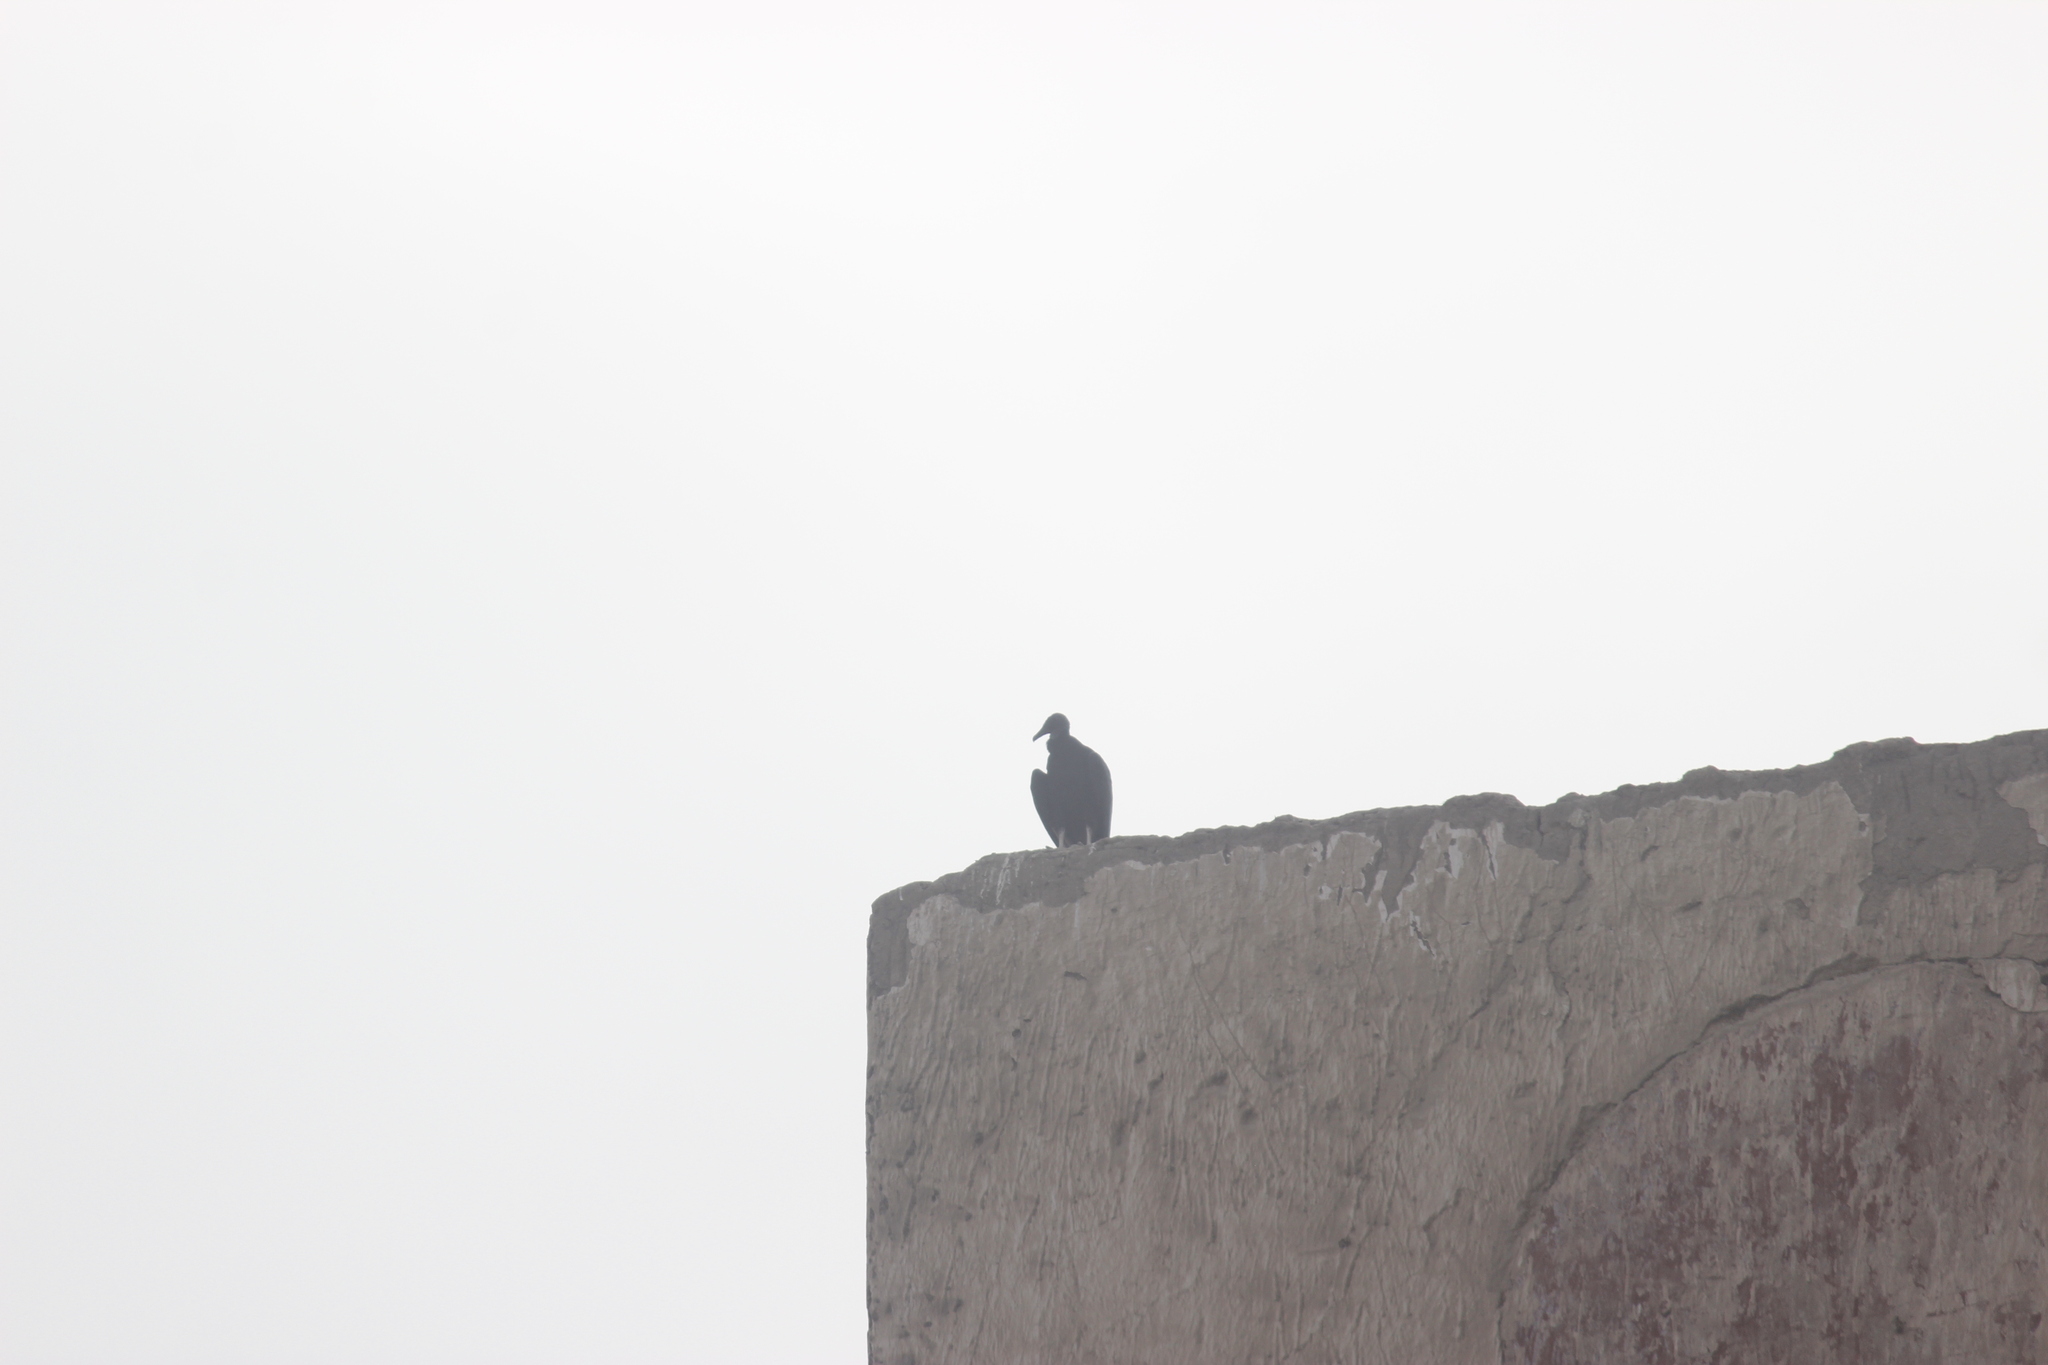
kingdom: Animalia
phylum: Chordata
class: Aves
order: Accipitriformes
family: Cathartidae
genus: Coragyps
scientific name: Coragyps atratus
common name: Black vulture
